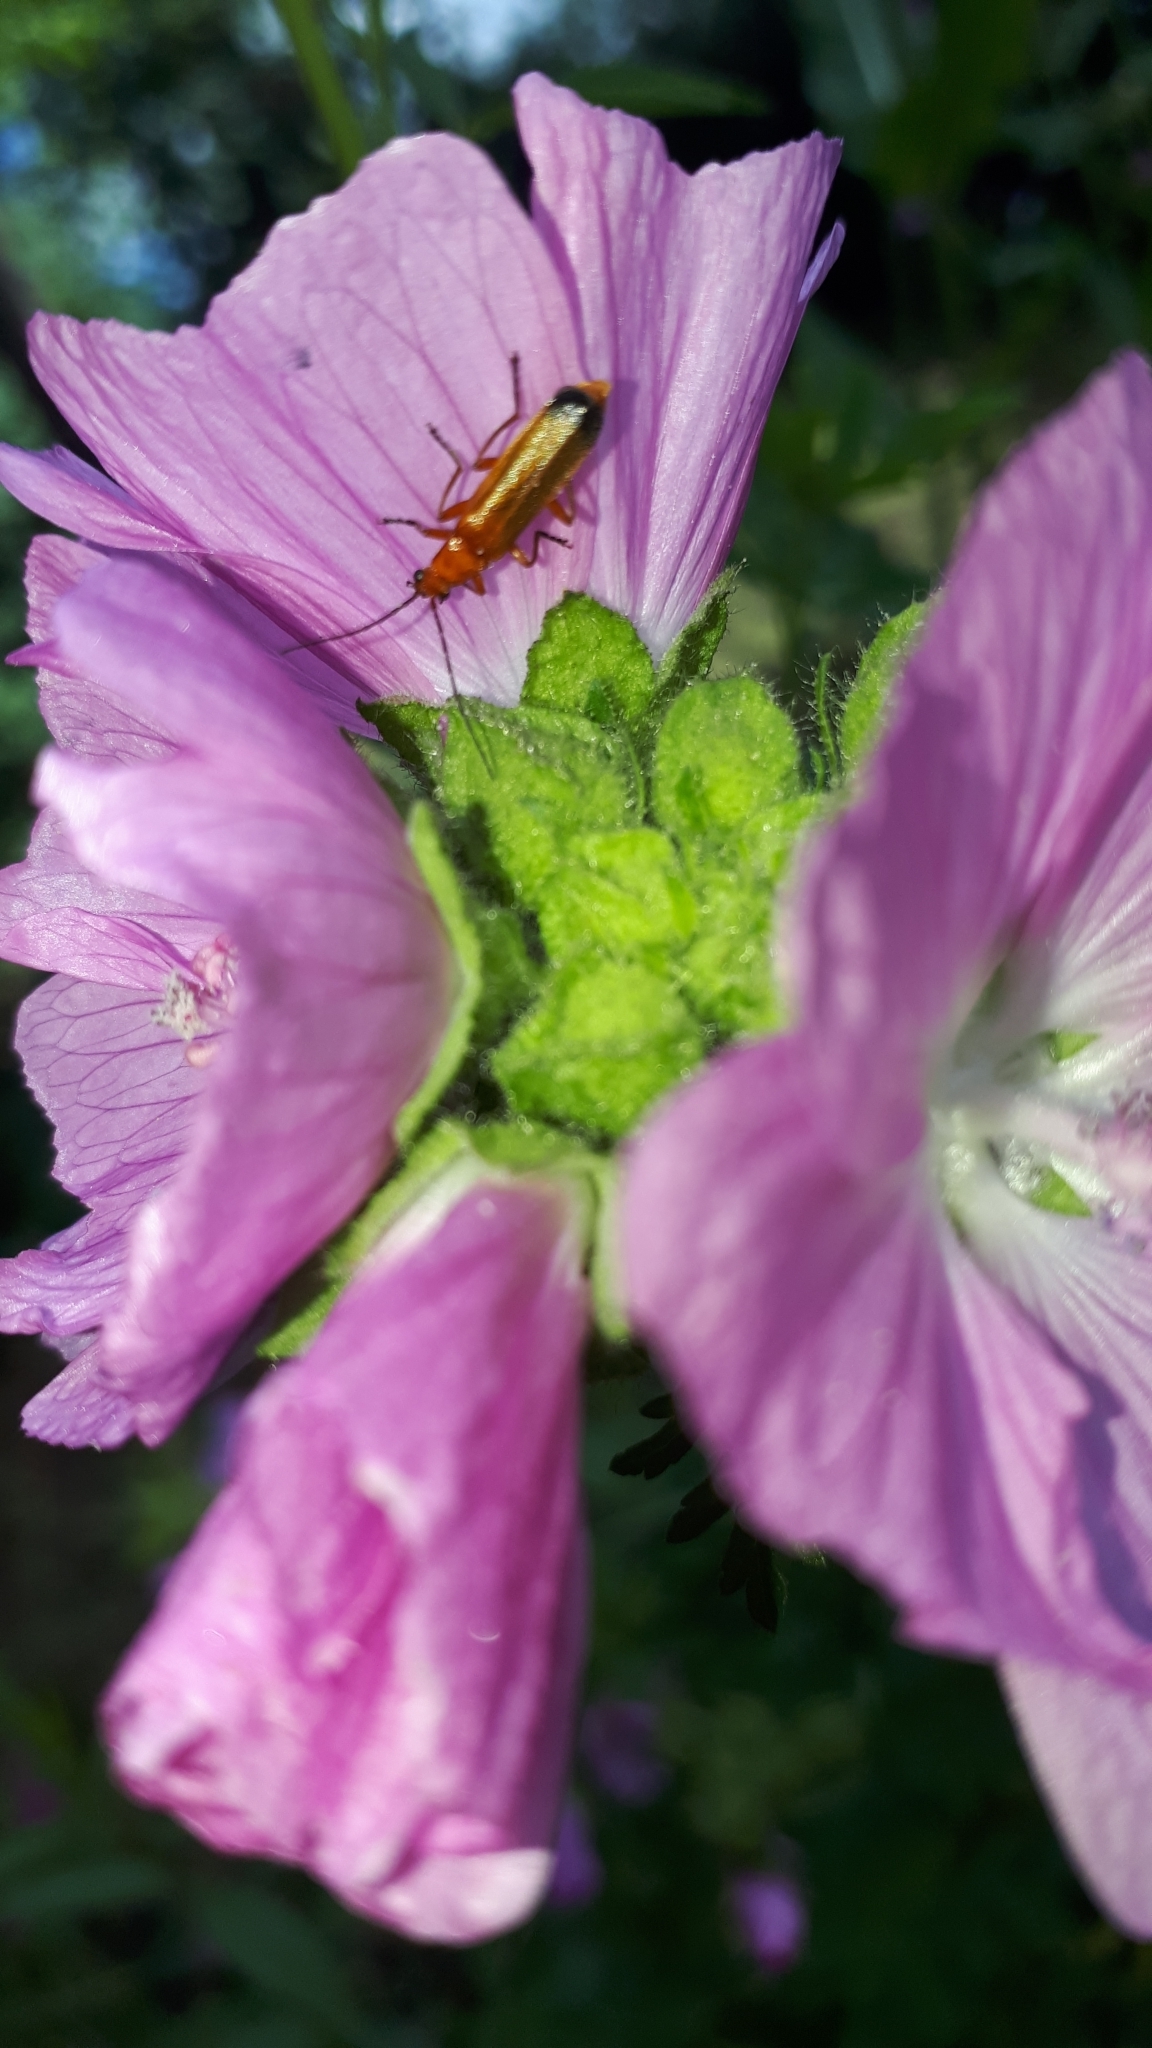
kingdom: Animalia
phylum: Arthropoda
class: Insecta
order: Coleoptera
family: Cantharidae
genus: Rhagonycha
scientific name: Rhagonycha fulva
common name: Common red soldier beetle
